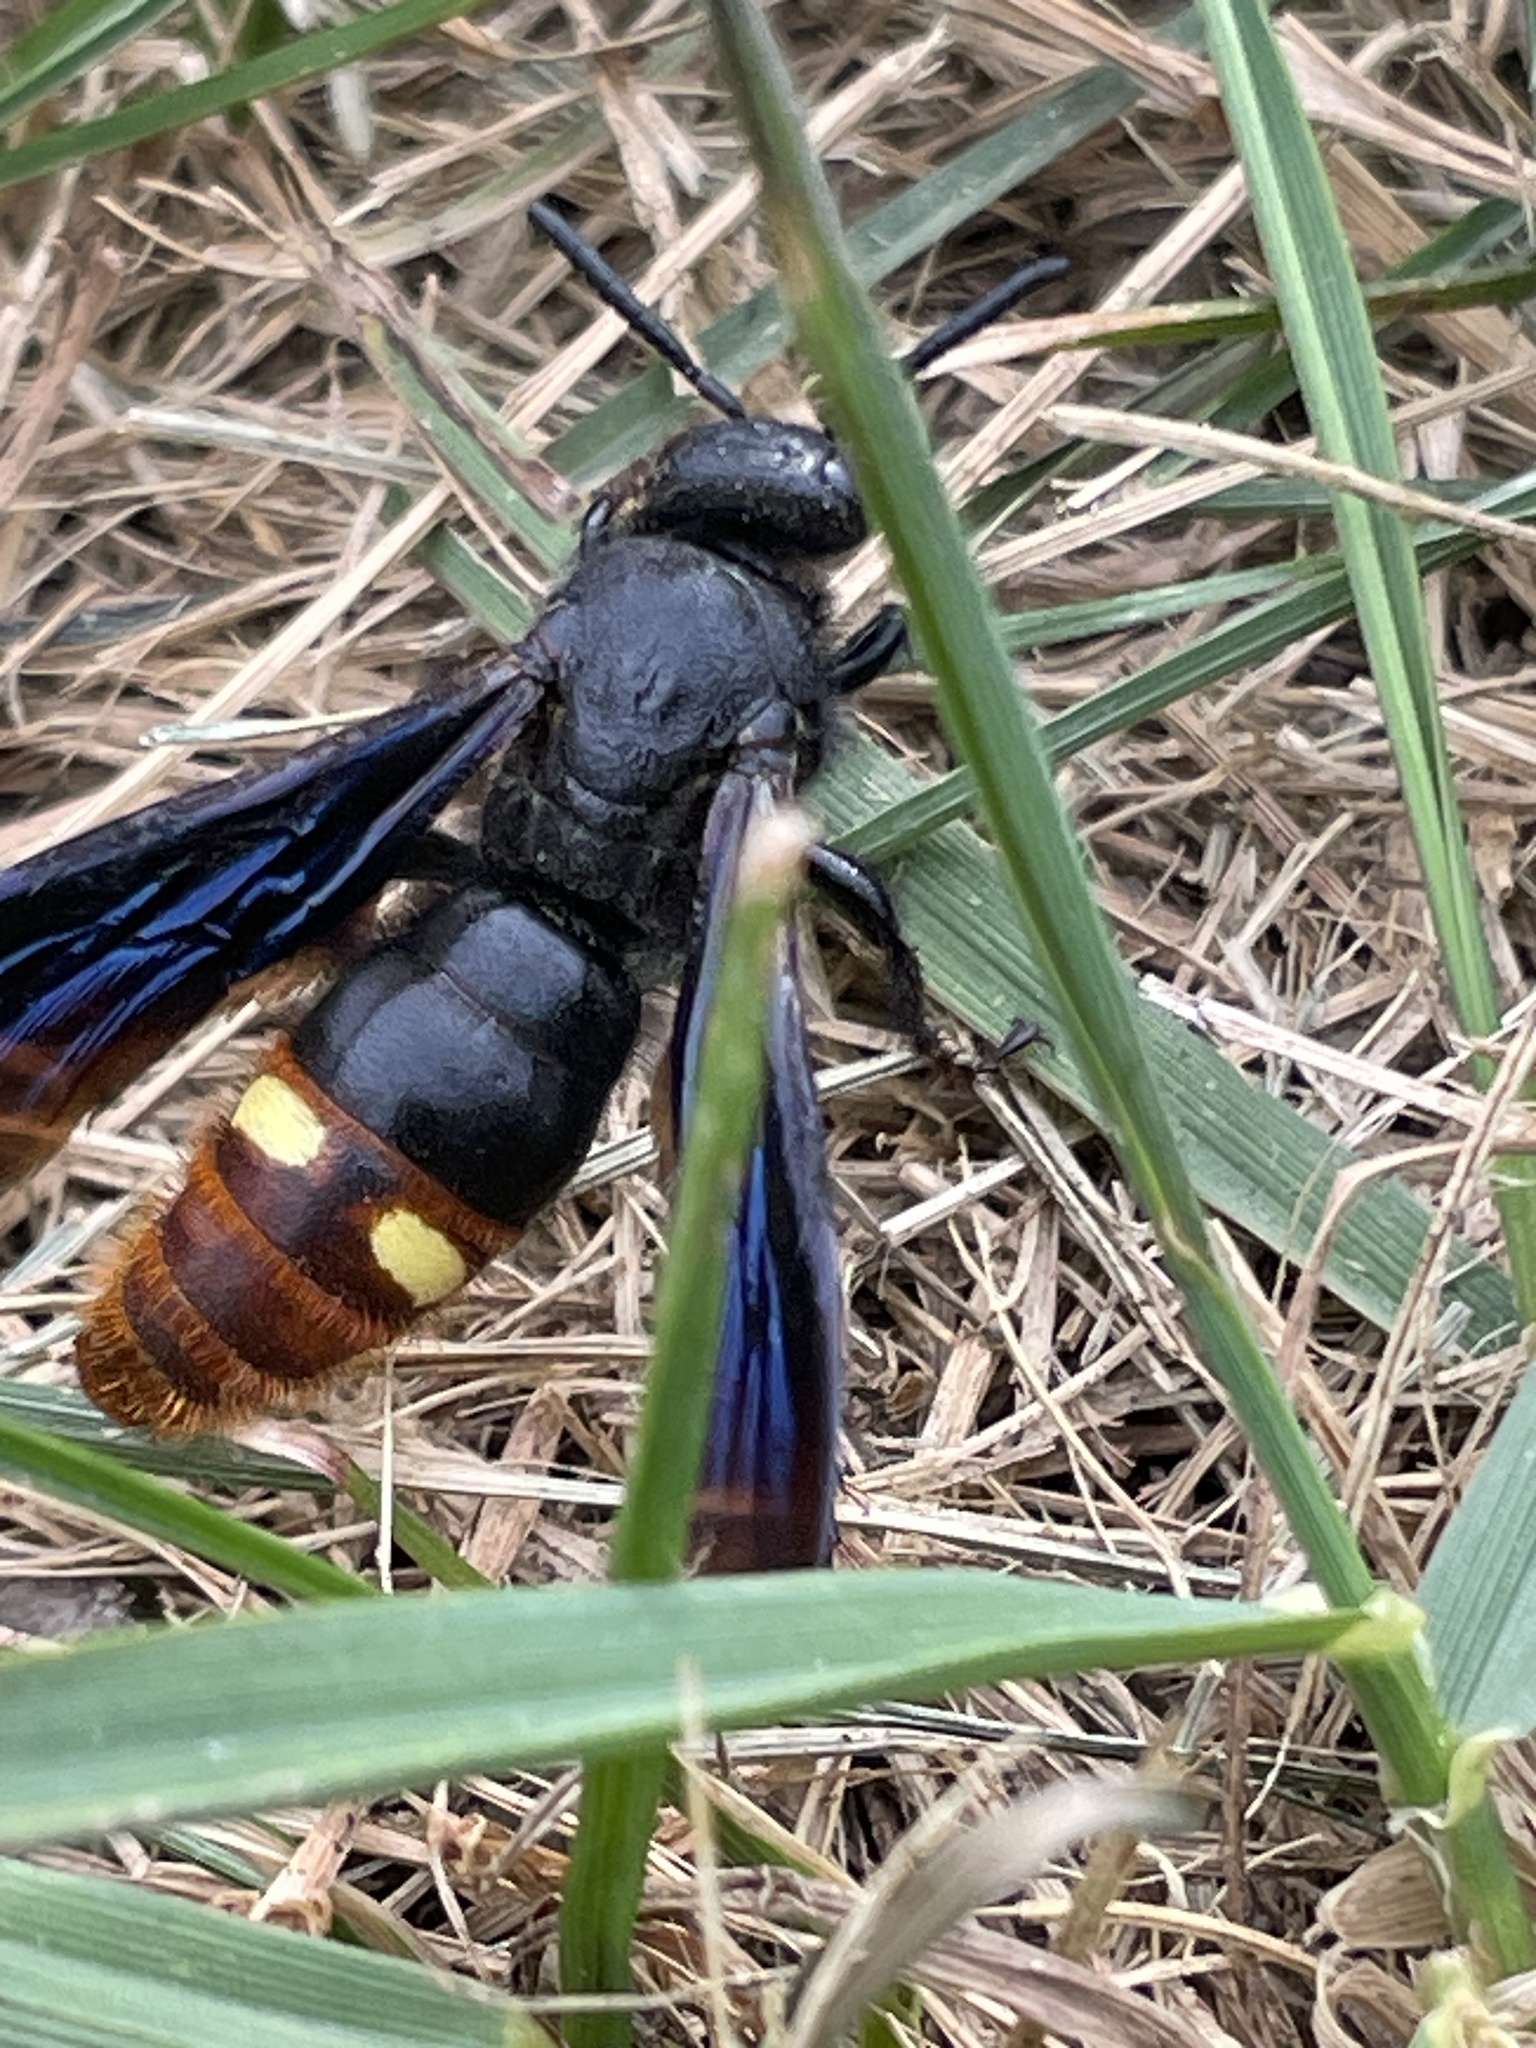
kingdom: Animalia
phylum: Arthropoda
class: Insecta
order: Hymenoptera
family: Scoliidae
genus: Scolia
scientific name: Scolia dubia
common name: Blue-winged scoliid wasp
